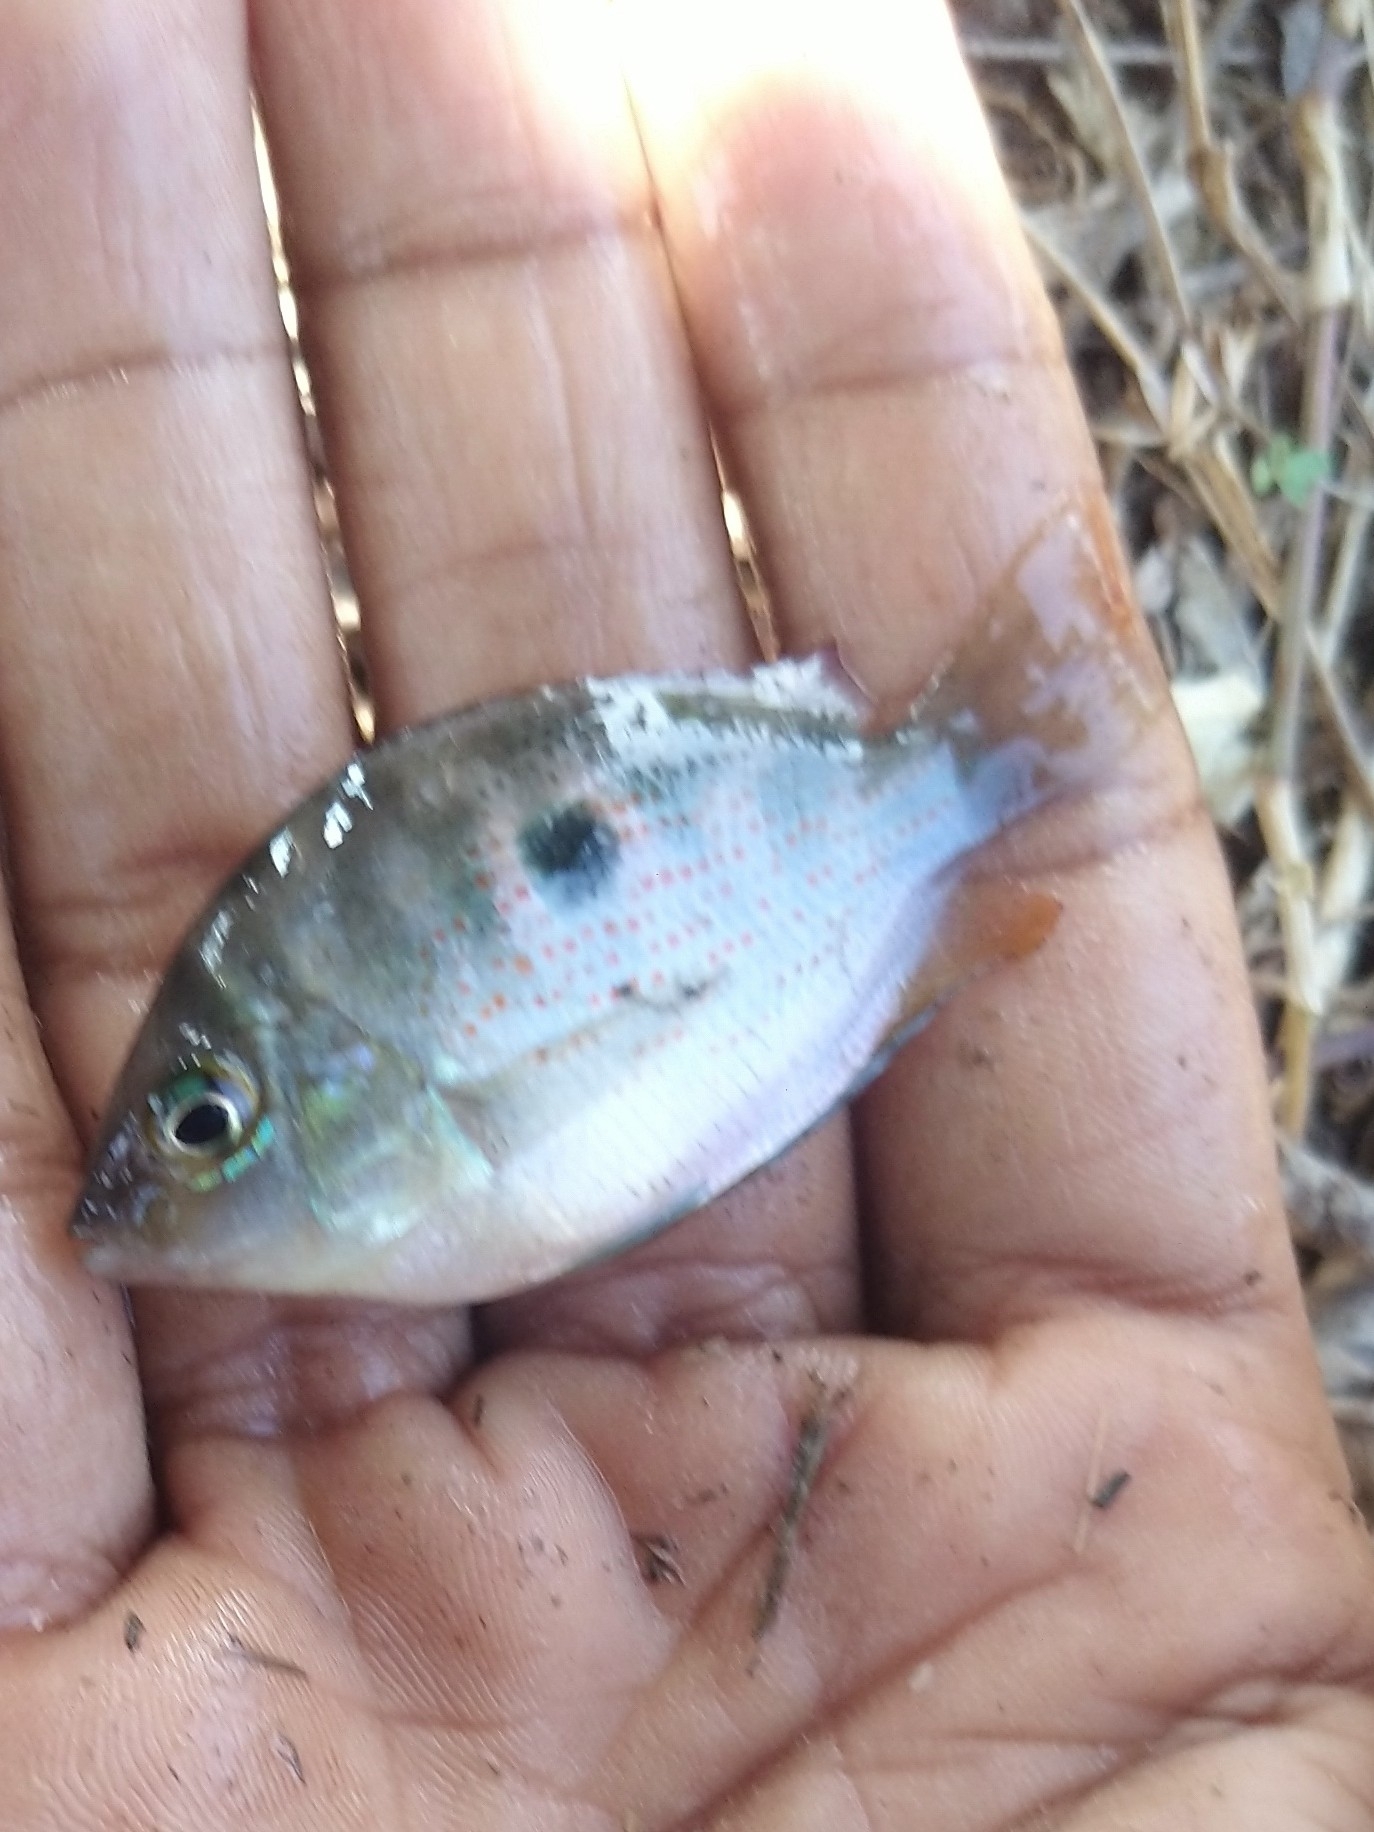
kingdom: Animalia
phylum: Chordata
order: Perciformes
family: Cichlidae
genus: Etroplus
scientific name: Etroplus maculatus
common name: Orange chromide
